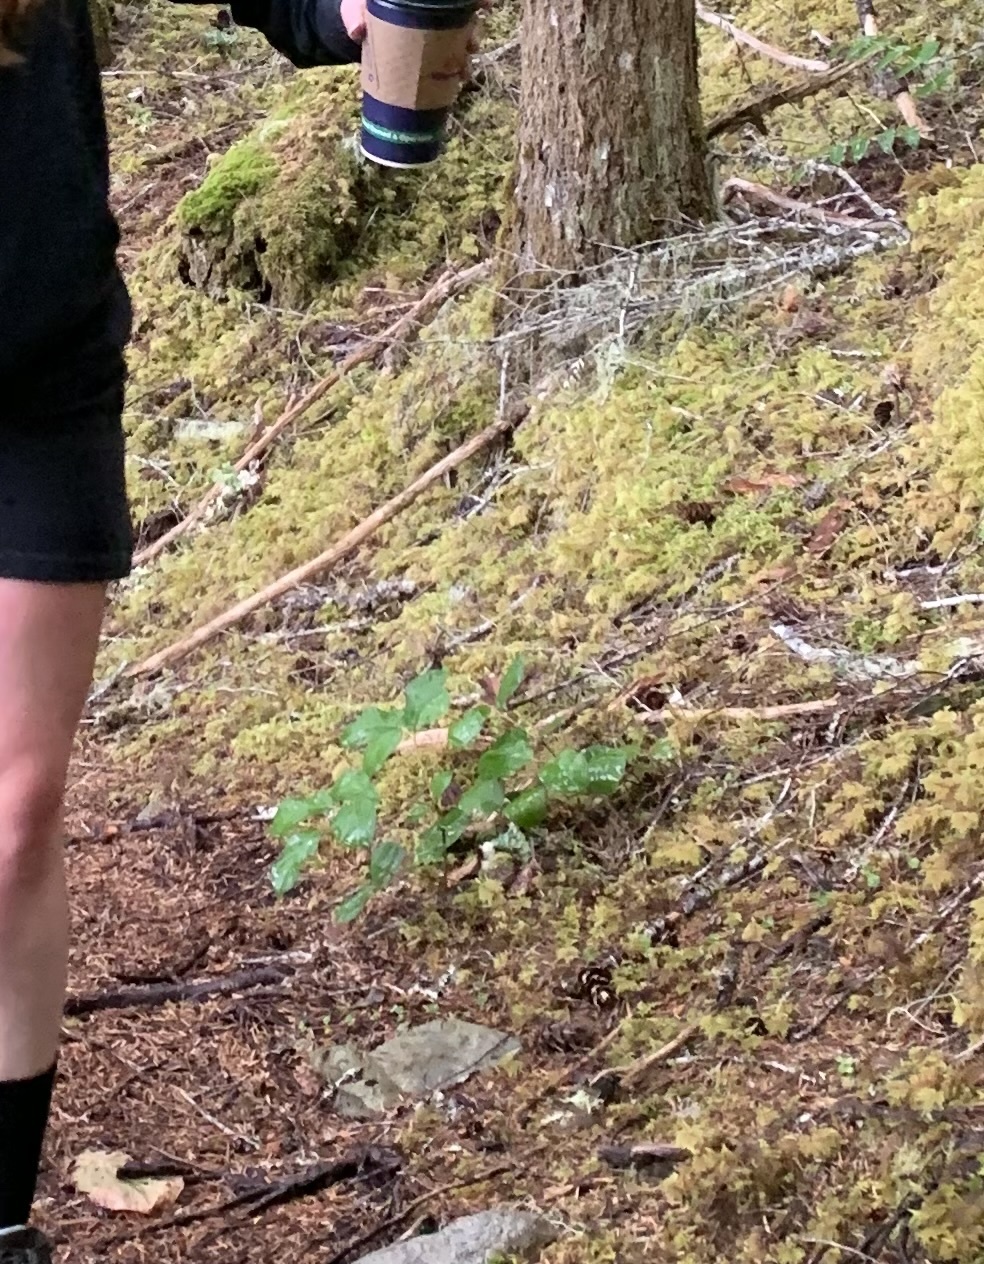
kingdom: Plantae
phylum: Tracheophyta
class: Magnoliopsida
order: Ericales
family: Ericaceae
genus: Gaultheria
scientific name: Gaultheria shallon
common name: Shallon
